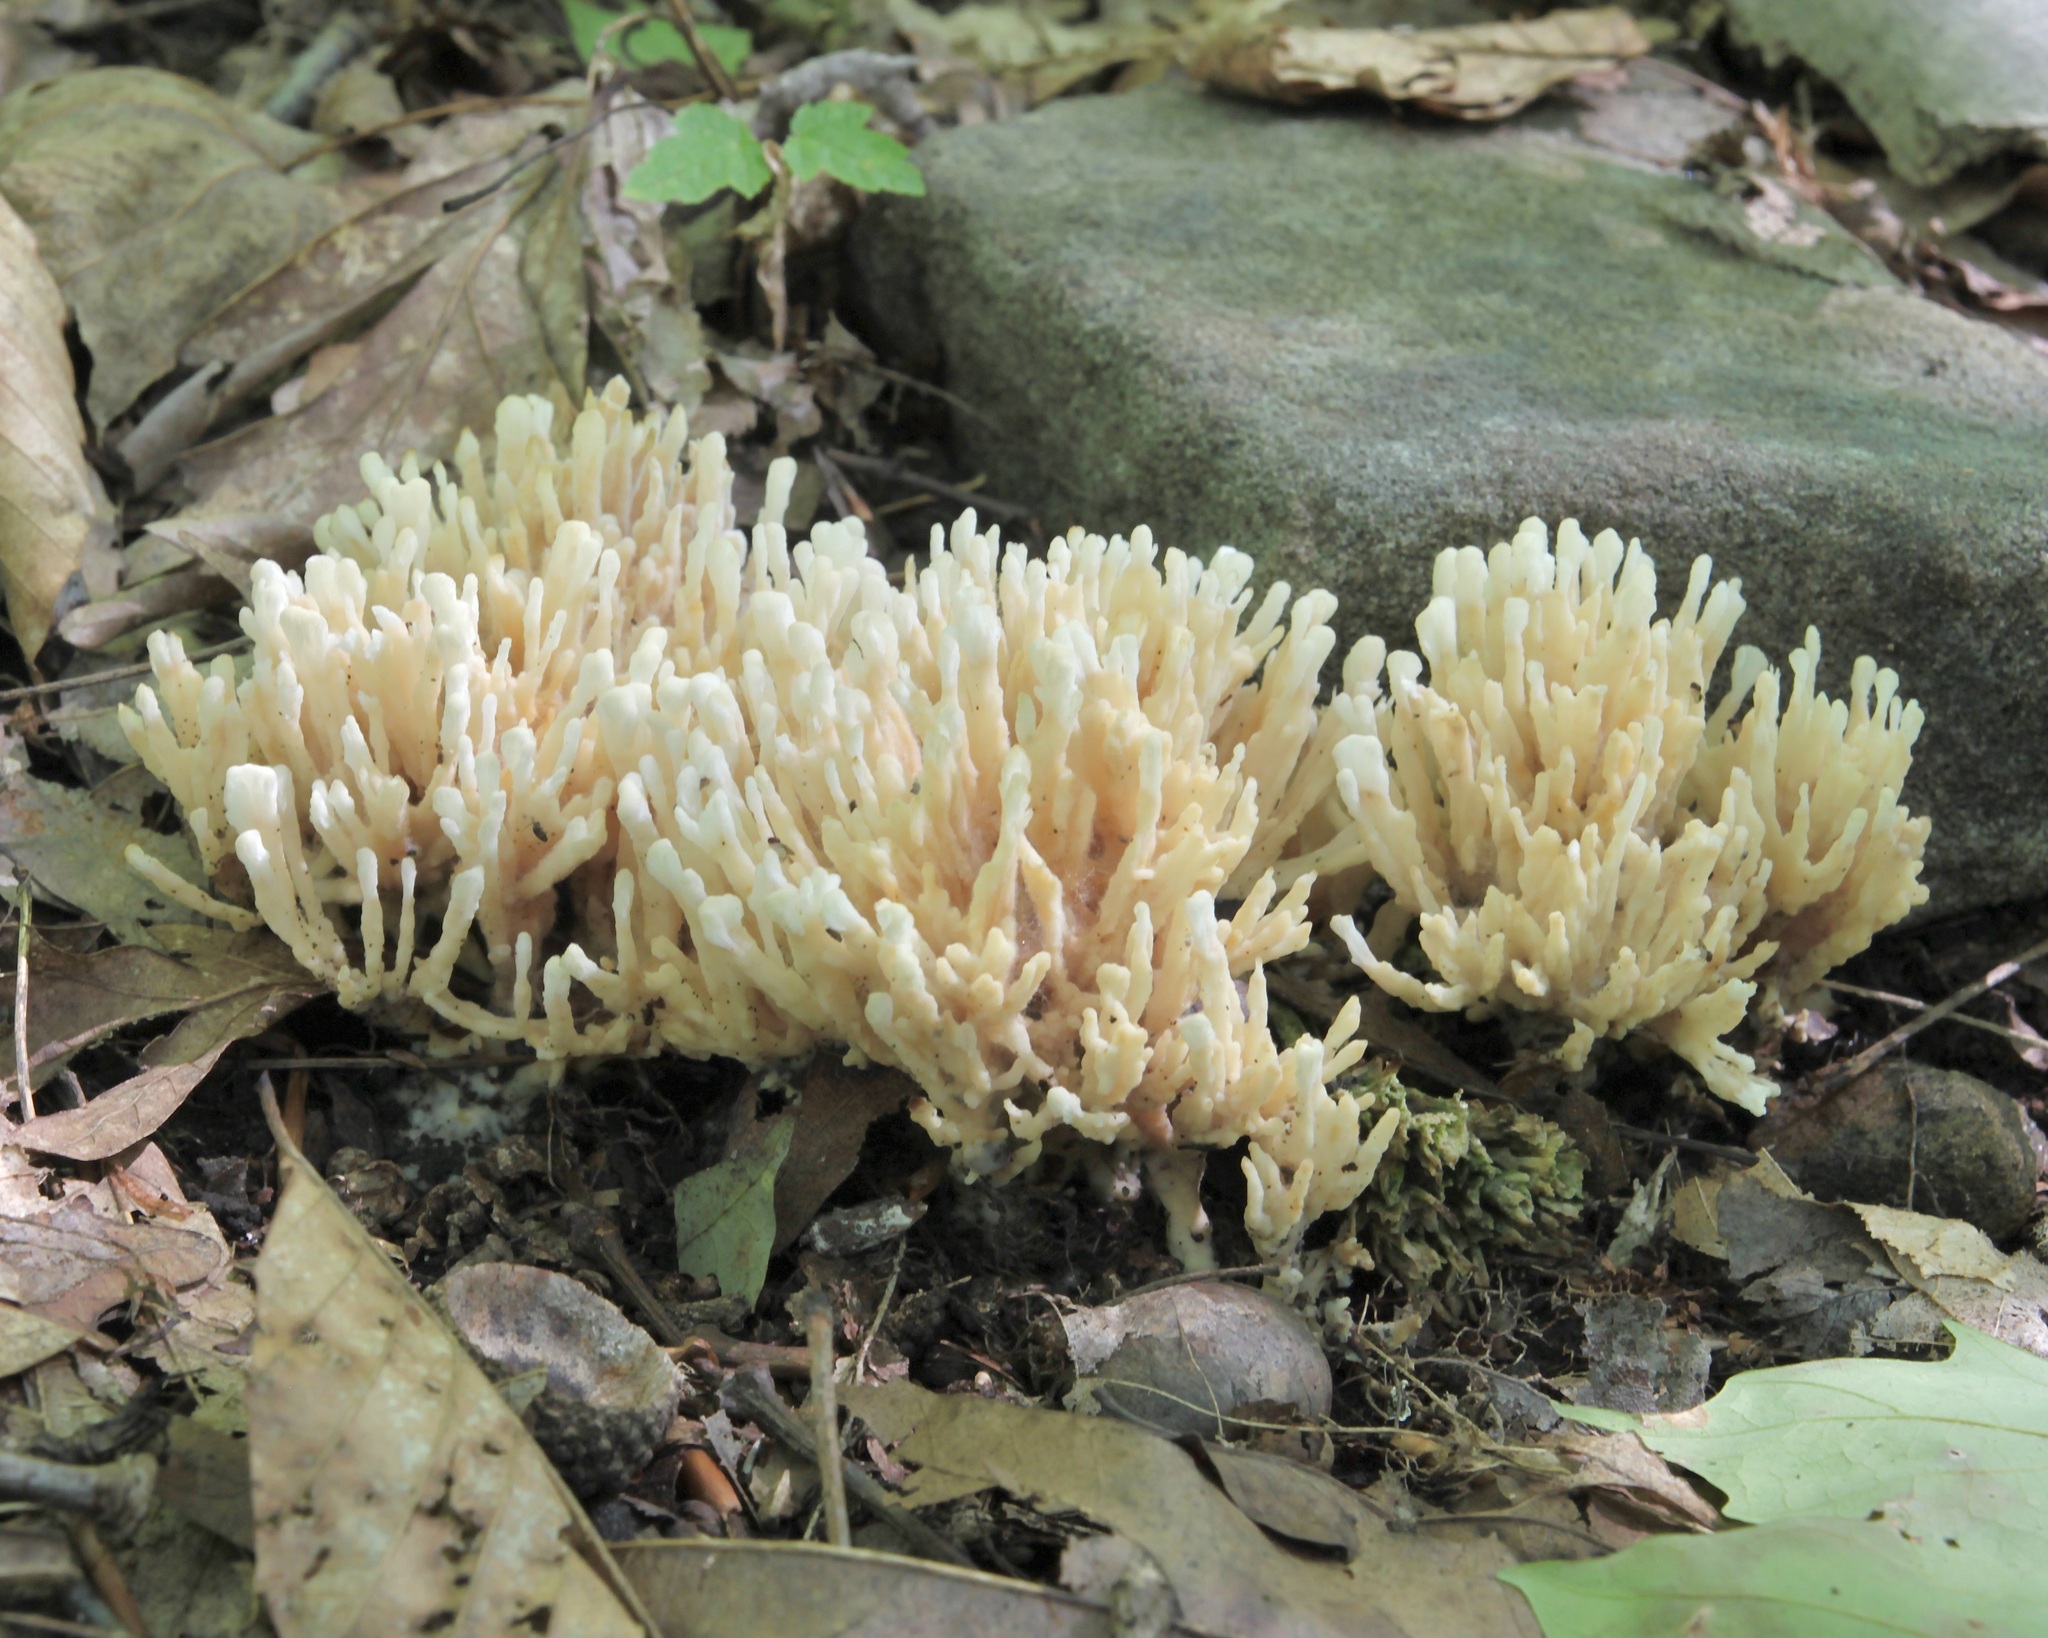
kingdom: Fungi
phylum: Basidiomycota
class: Agaricomycetes
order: Sebacinales
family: Sebacinaceae
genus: Sebacina
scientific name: Sebacina schweinitzii
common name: Jellied false coral fungus
